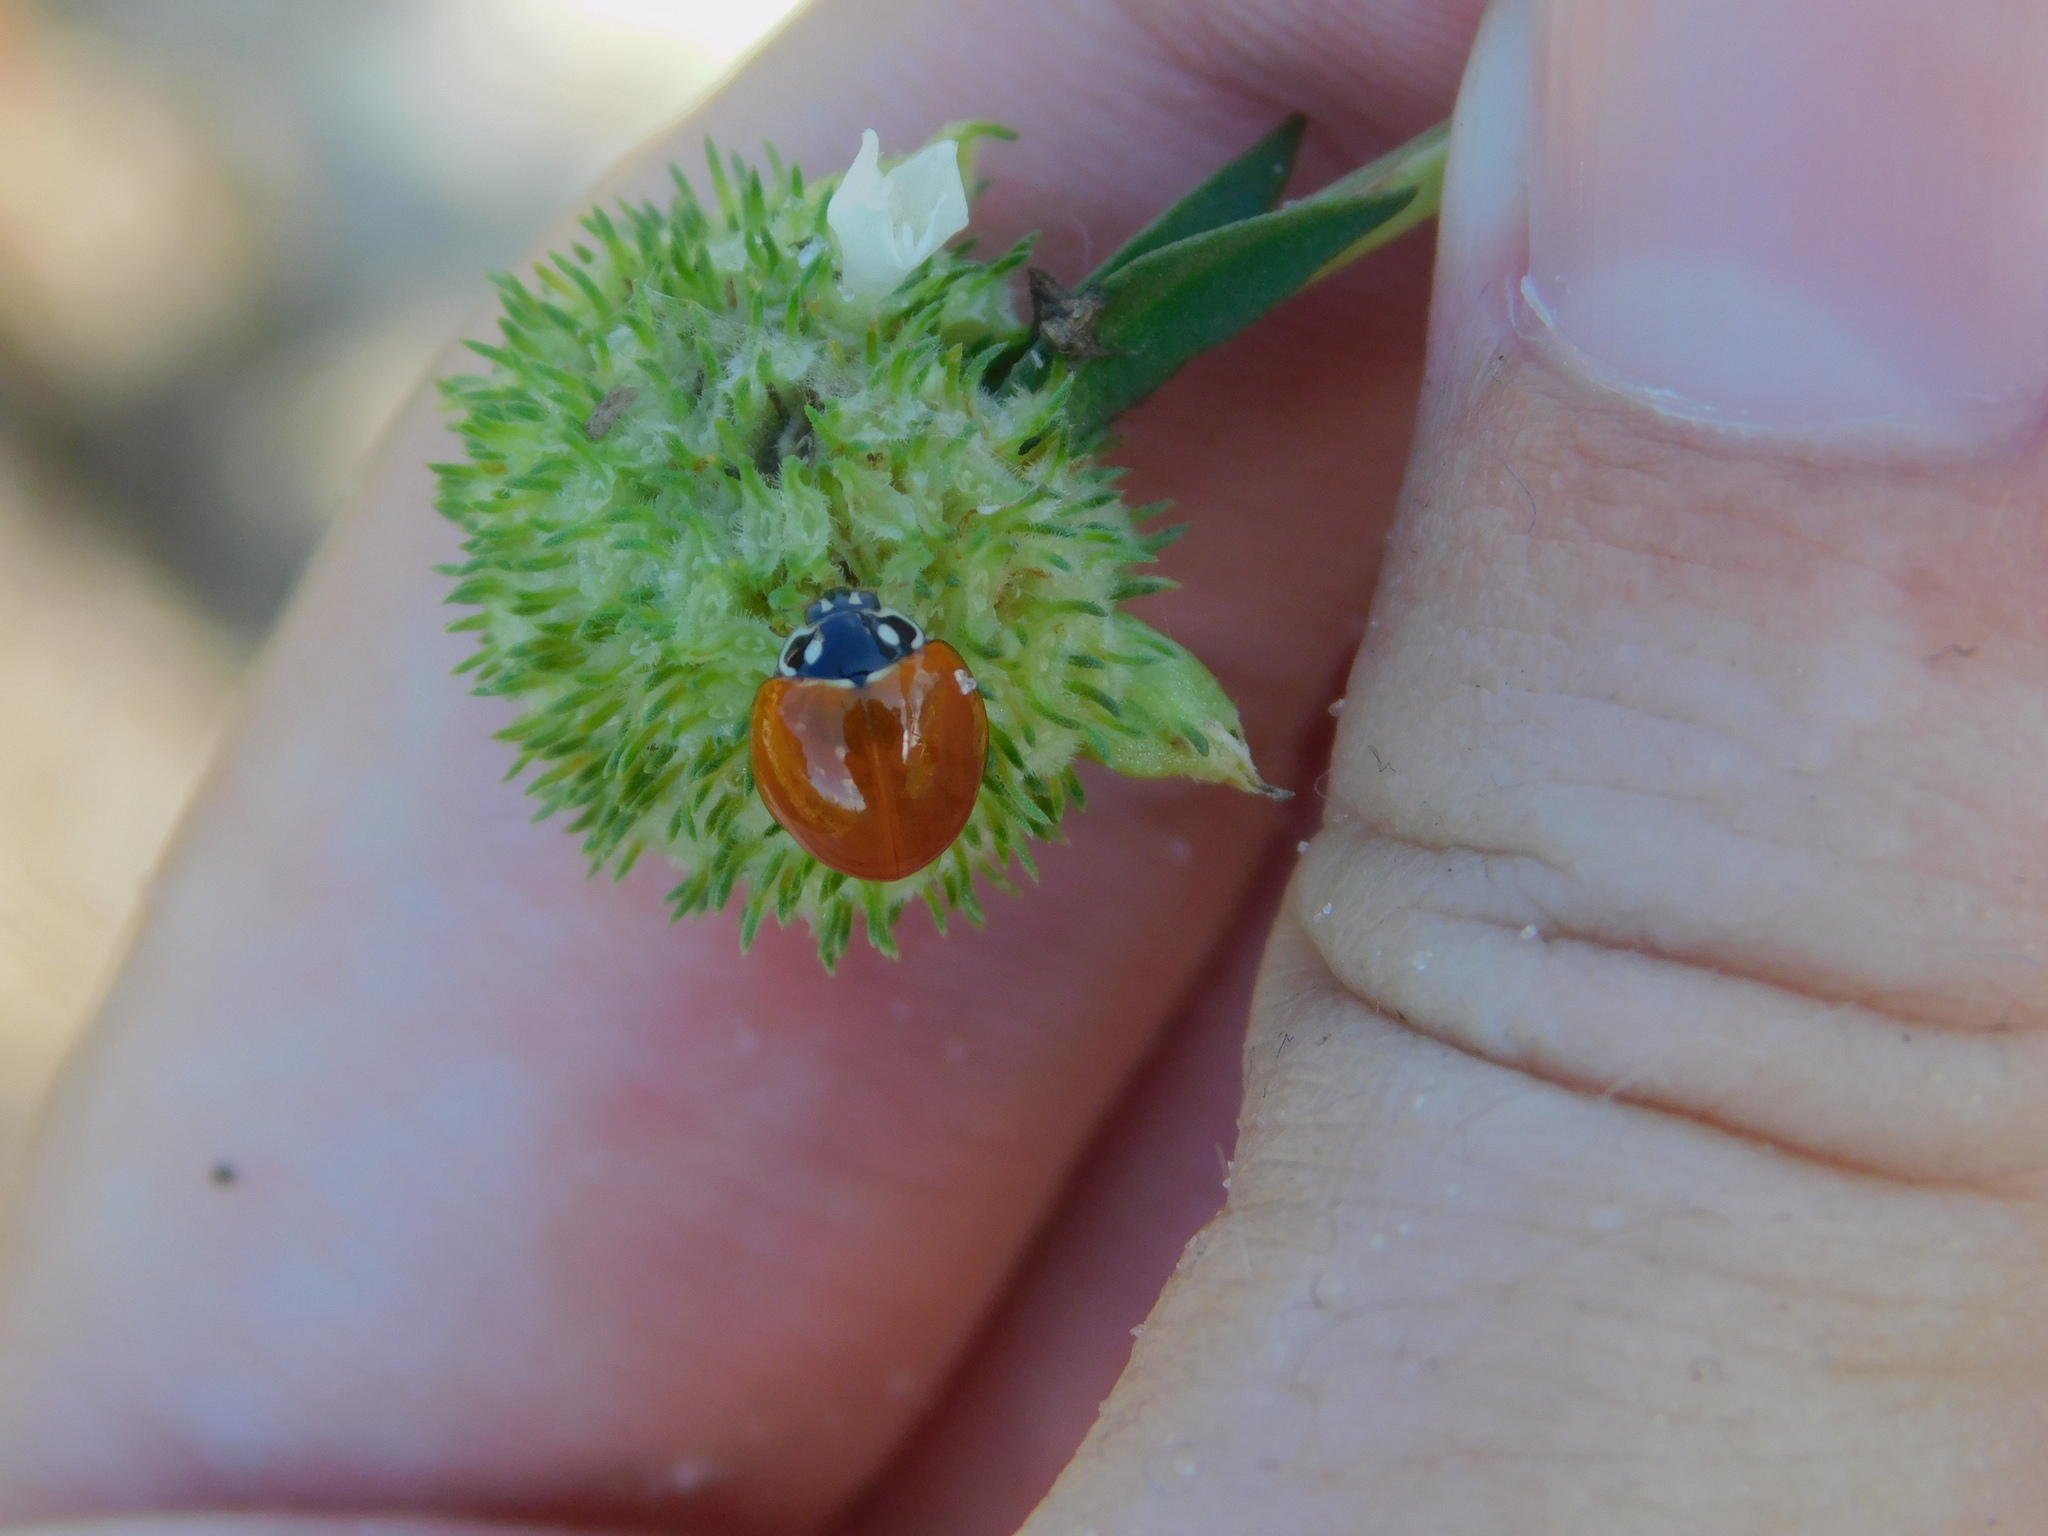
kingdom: Animalia
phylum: Arthropoda
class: Insecta
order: Coleoptera
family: Coccinellidae
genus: Cycloneda
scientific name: Cycloneda sanguinea
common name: Ladybird beetle
